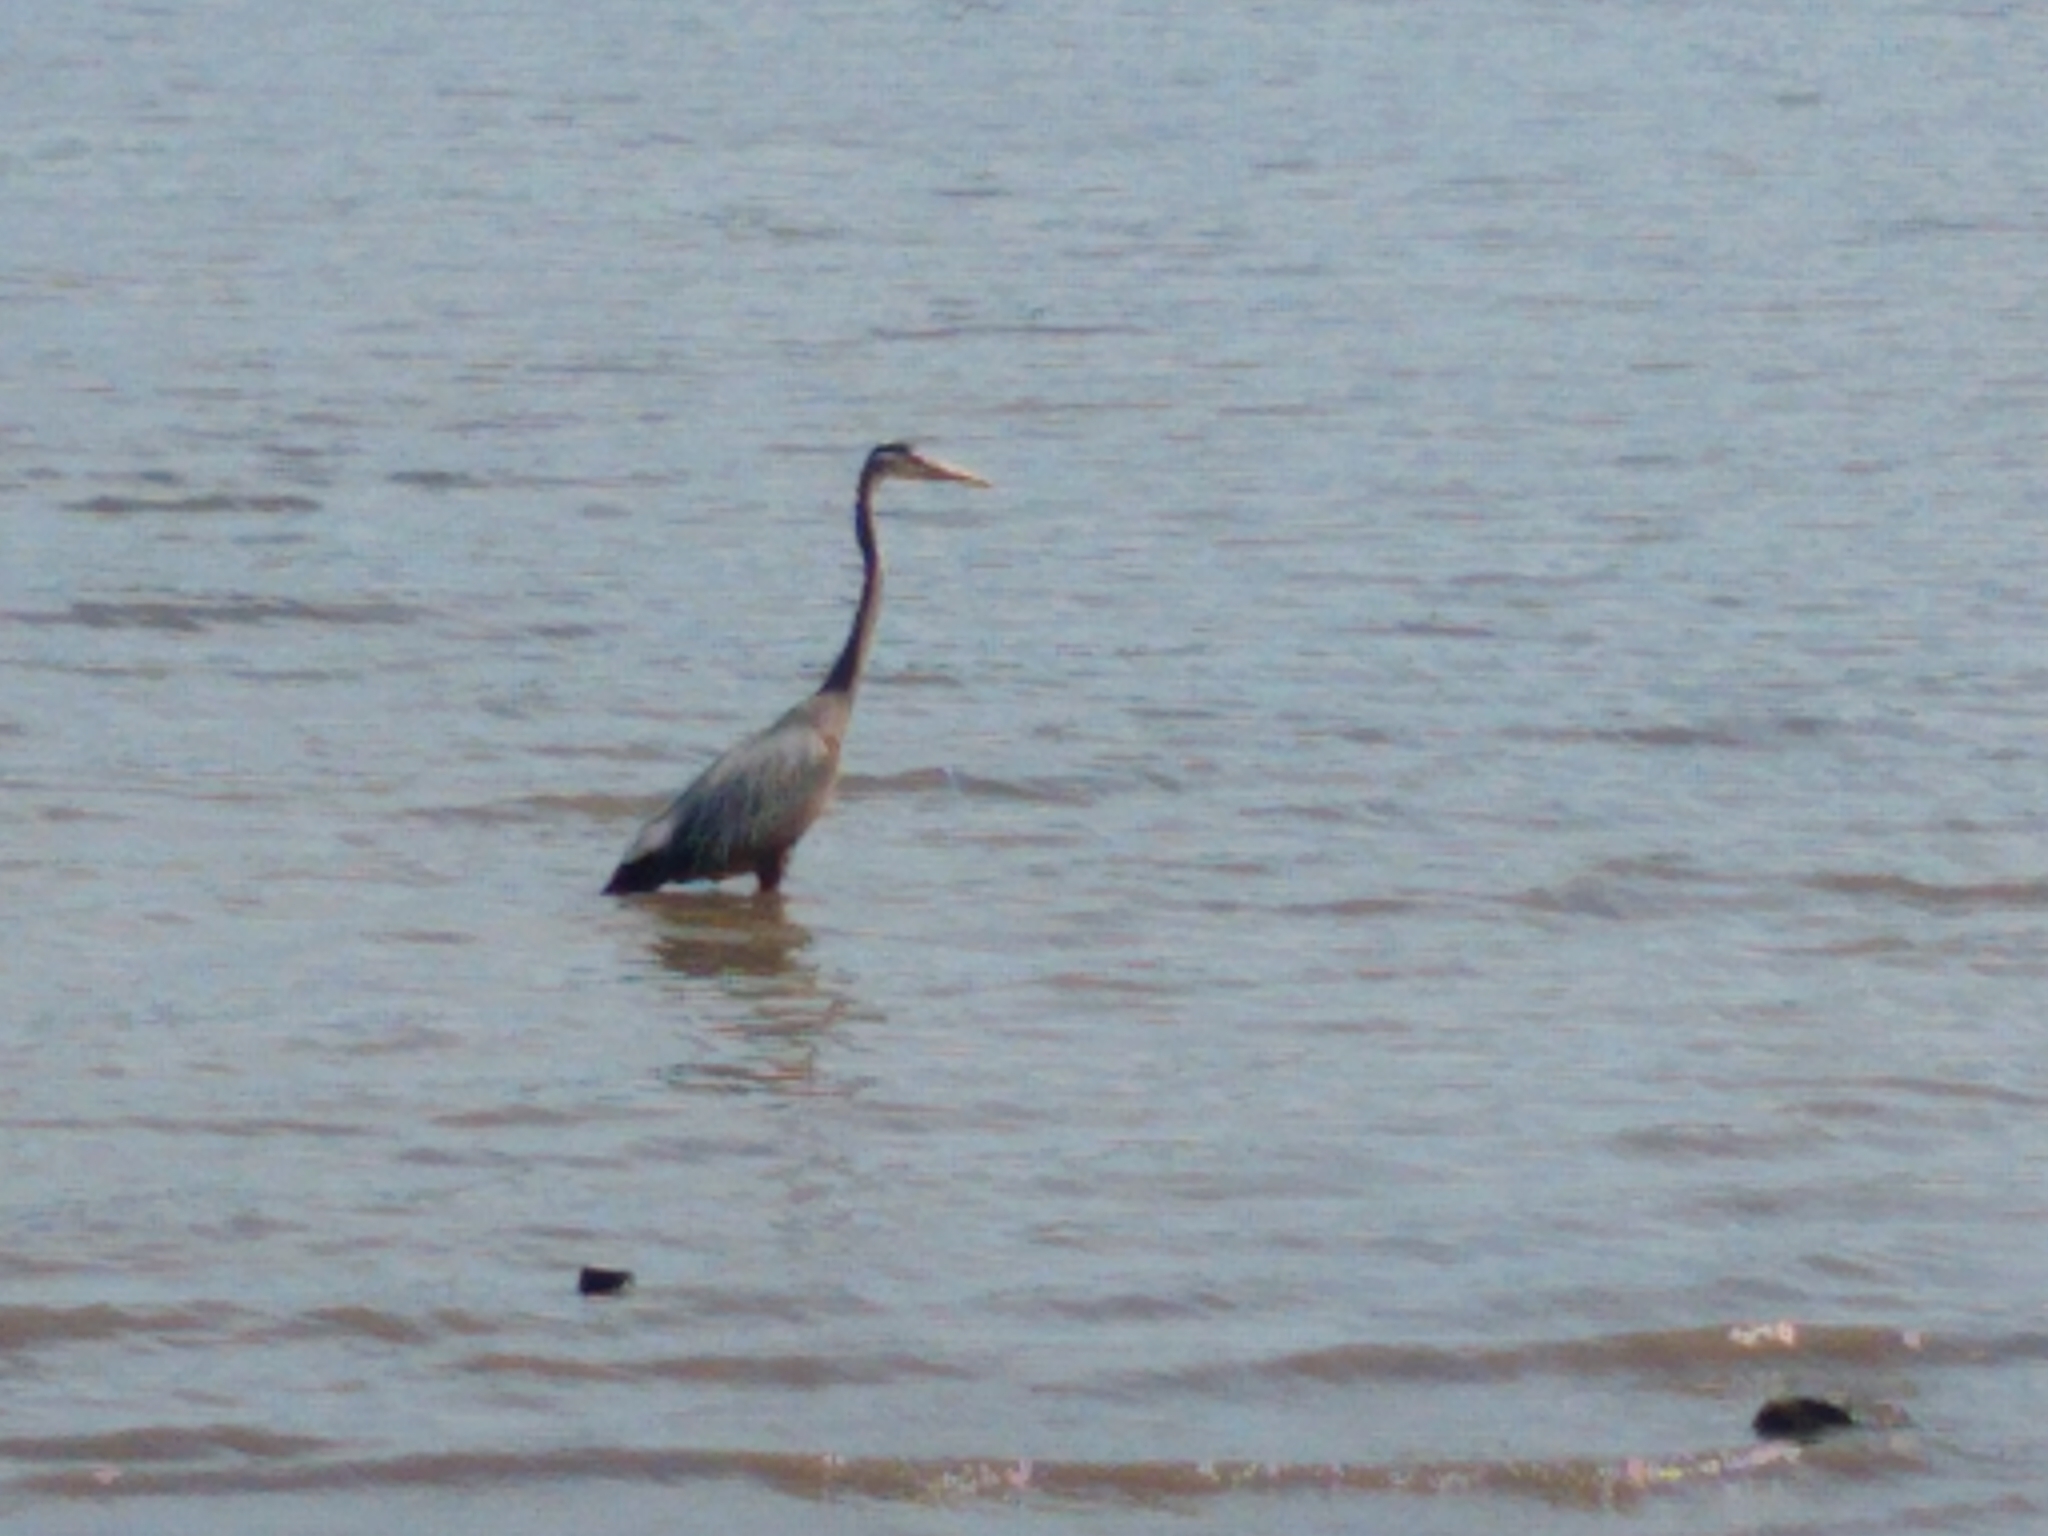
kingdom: Animalia
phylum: Chordata
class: Aves
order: Pelecaniformes
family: Ardeidae
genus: Ardea
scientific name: Ardea herodias
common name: Great blue heron
